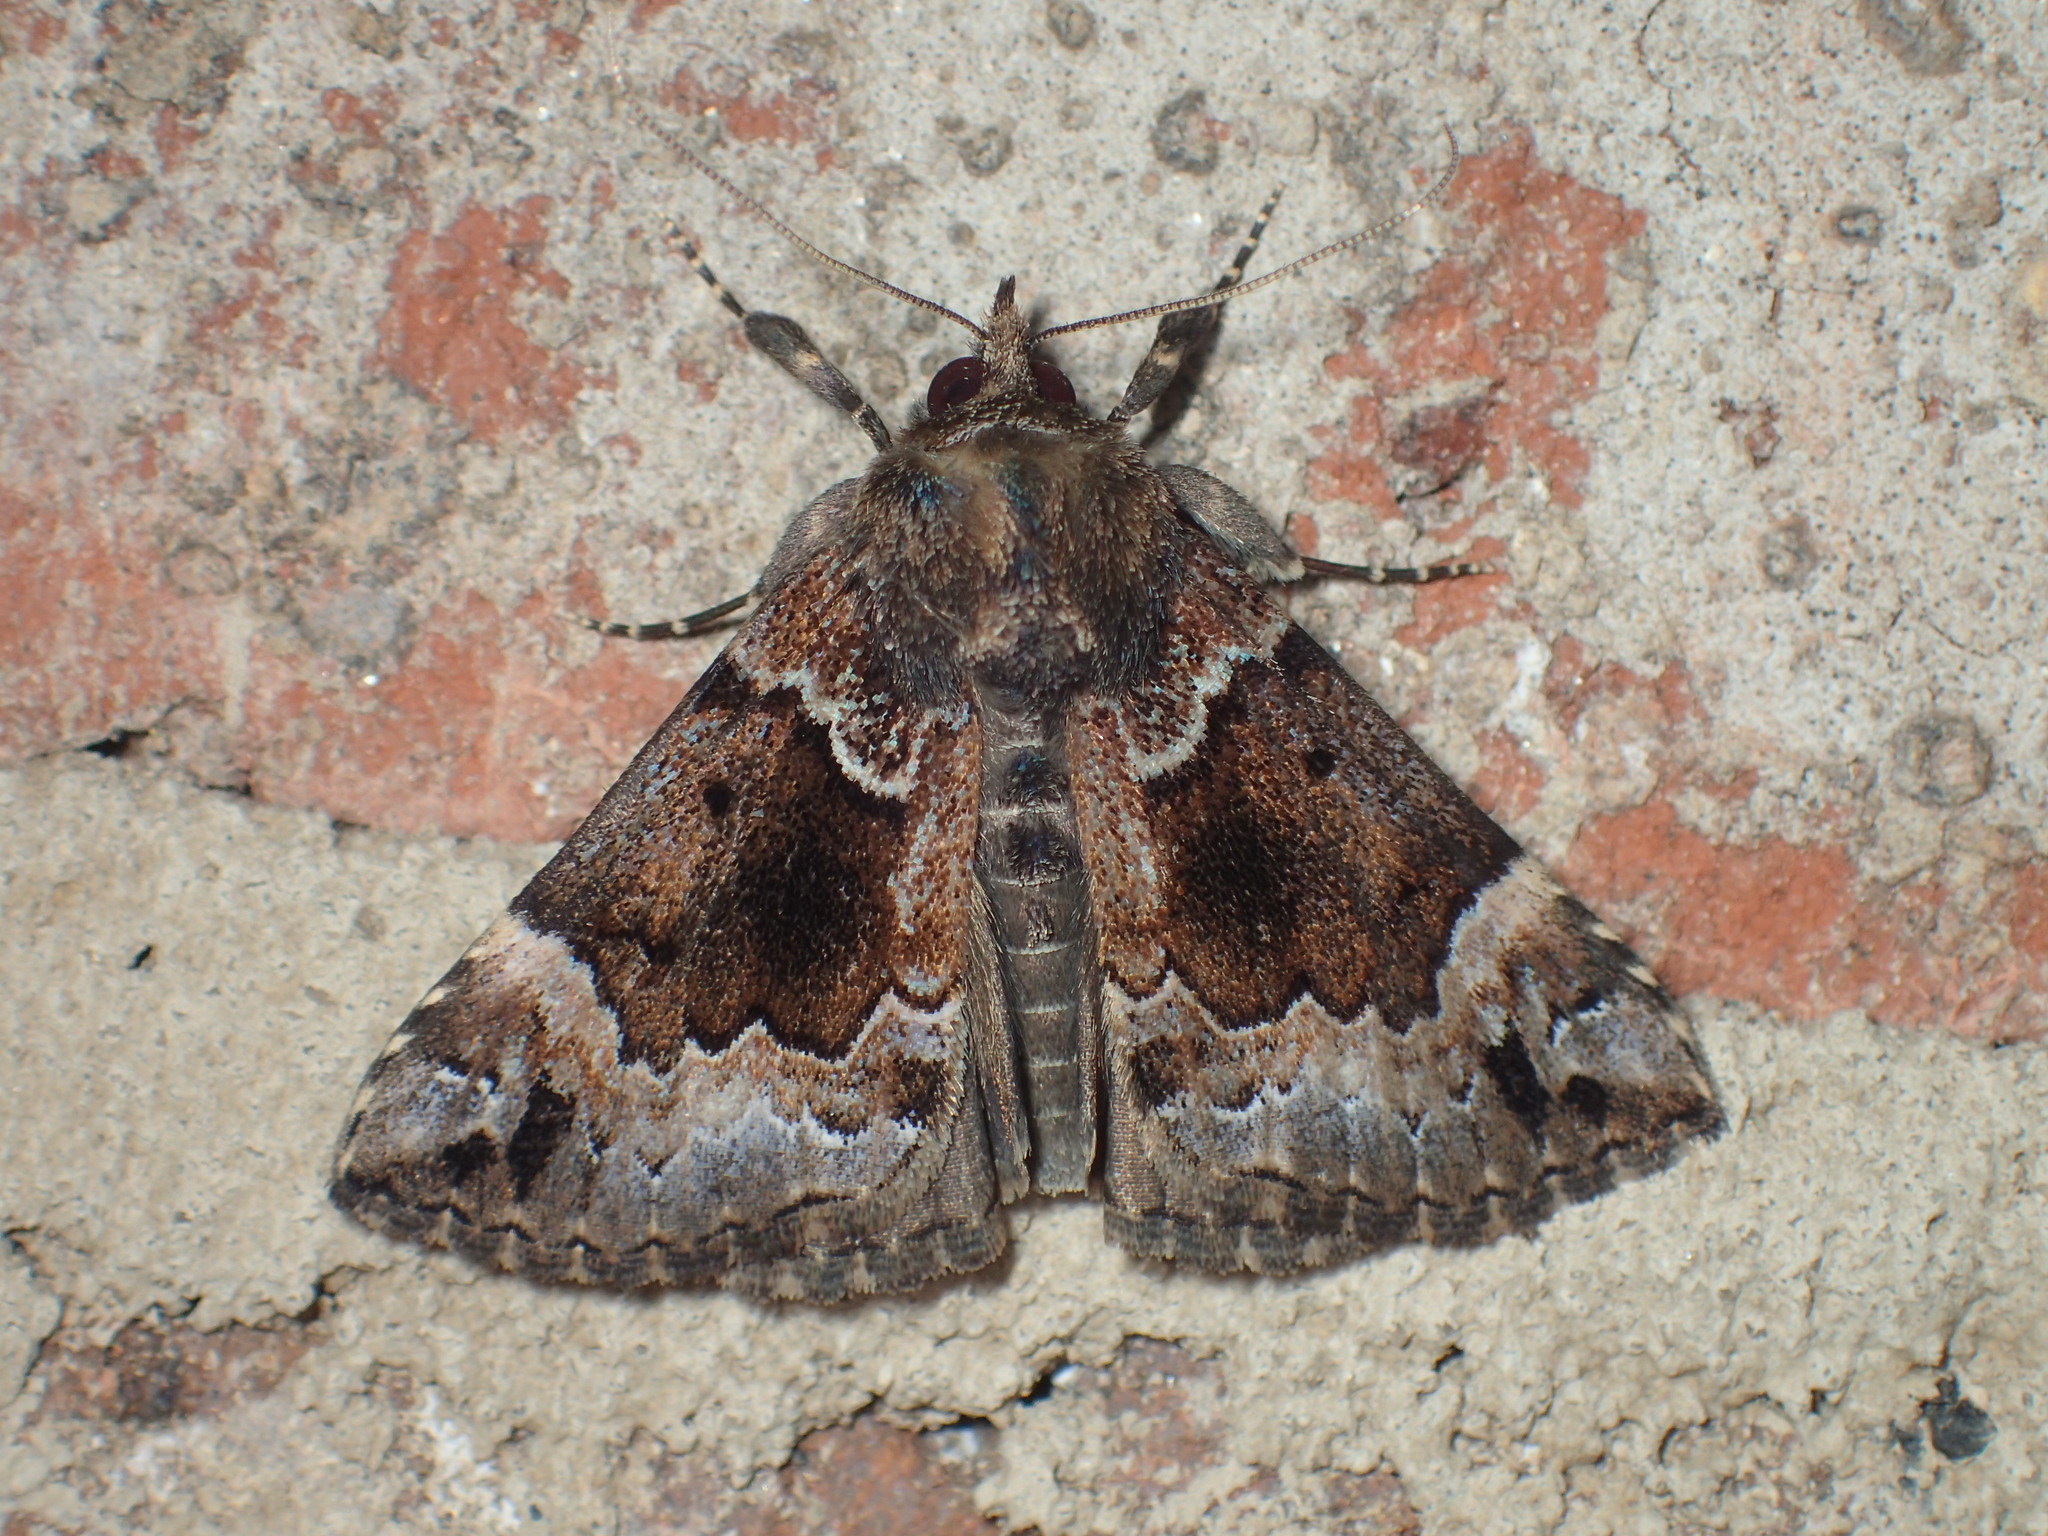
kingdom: Animalia
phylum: Arthropoda
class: Insecta
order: Lepidoptera
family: Erebidae
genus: Hypena
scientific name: Hypena palparia
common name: Mottled bomolocha moth
